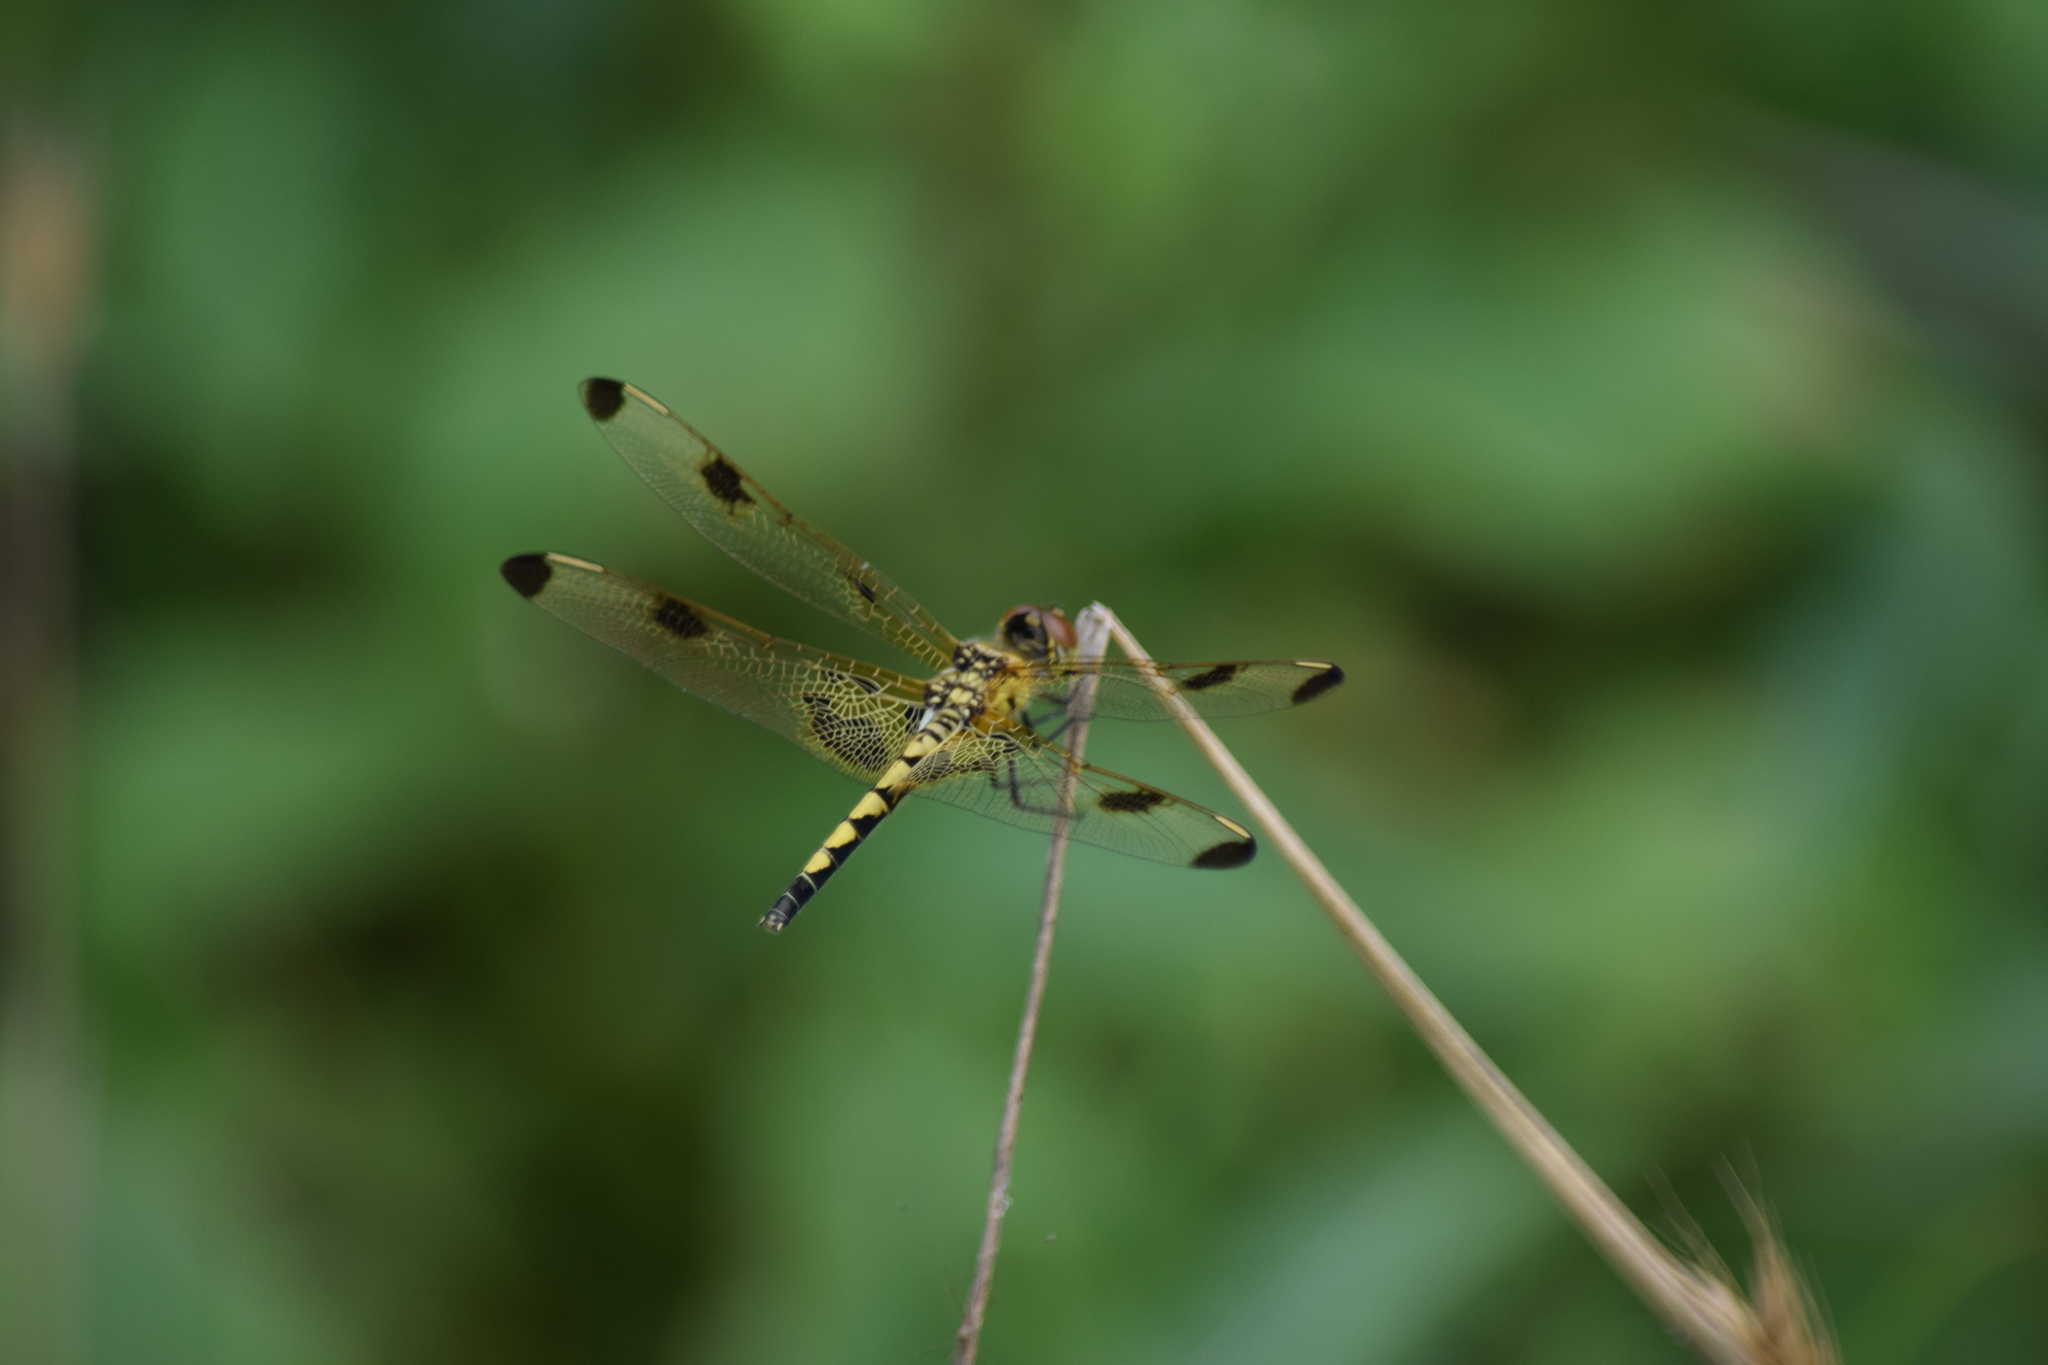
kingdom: Animalia
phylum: Arthropoda
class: Insecta
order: Odonata
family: Libellulidae
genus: Celithemis
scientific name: Celithemis elisa
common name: Calico pennant
